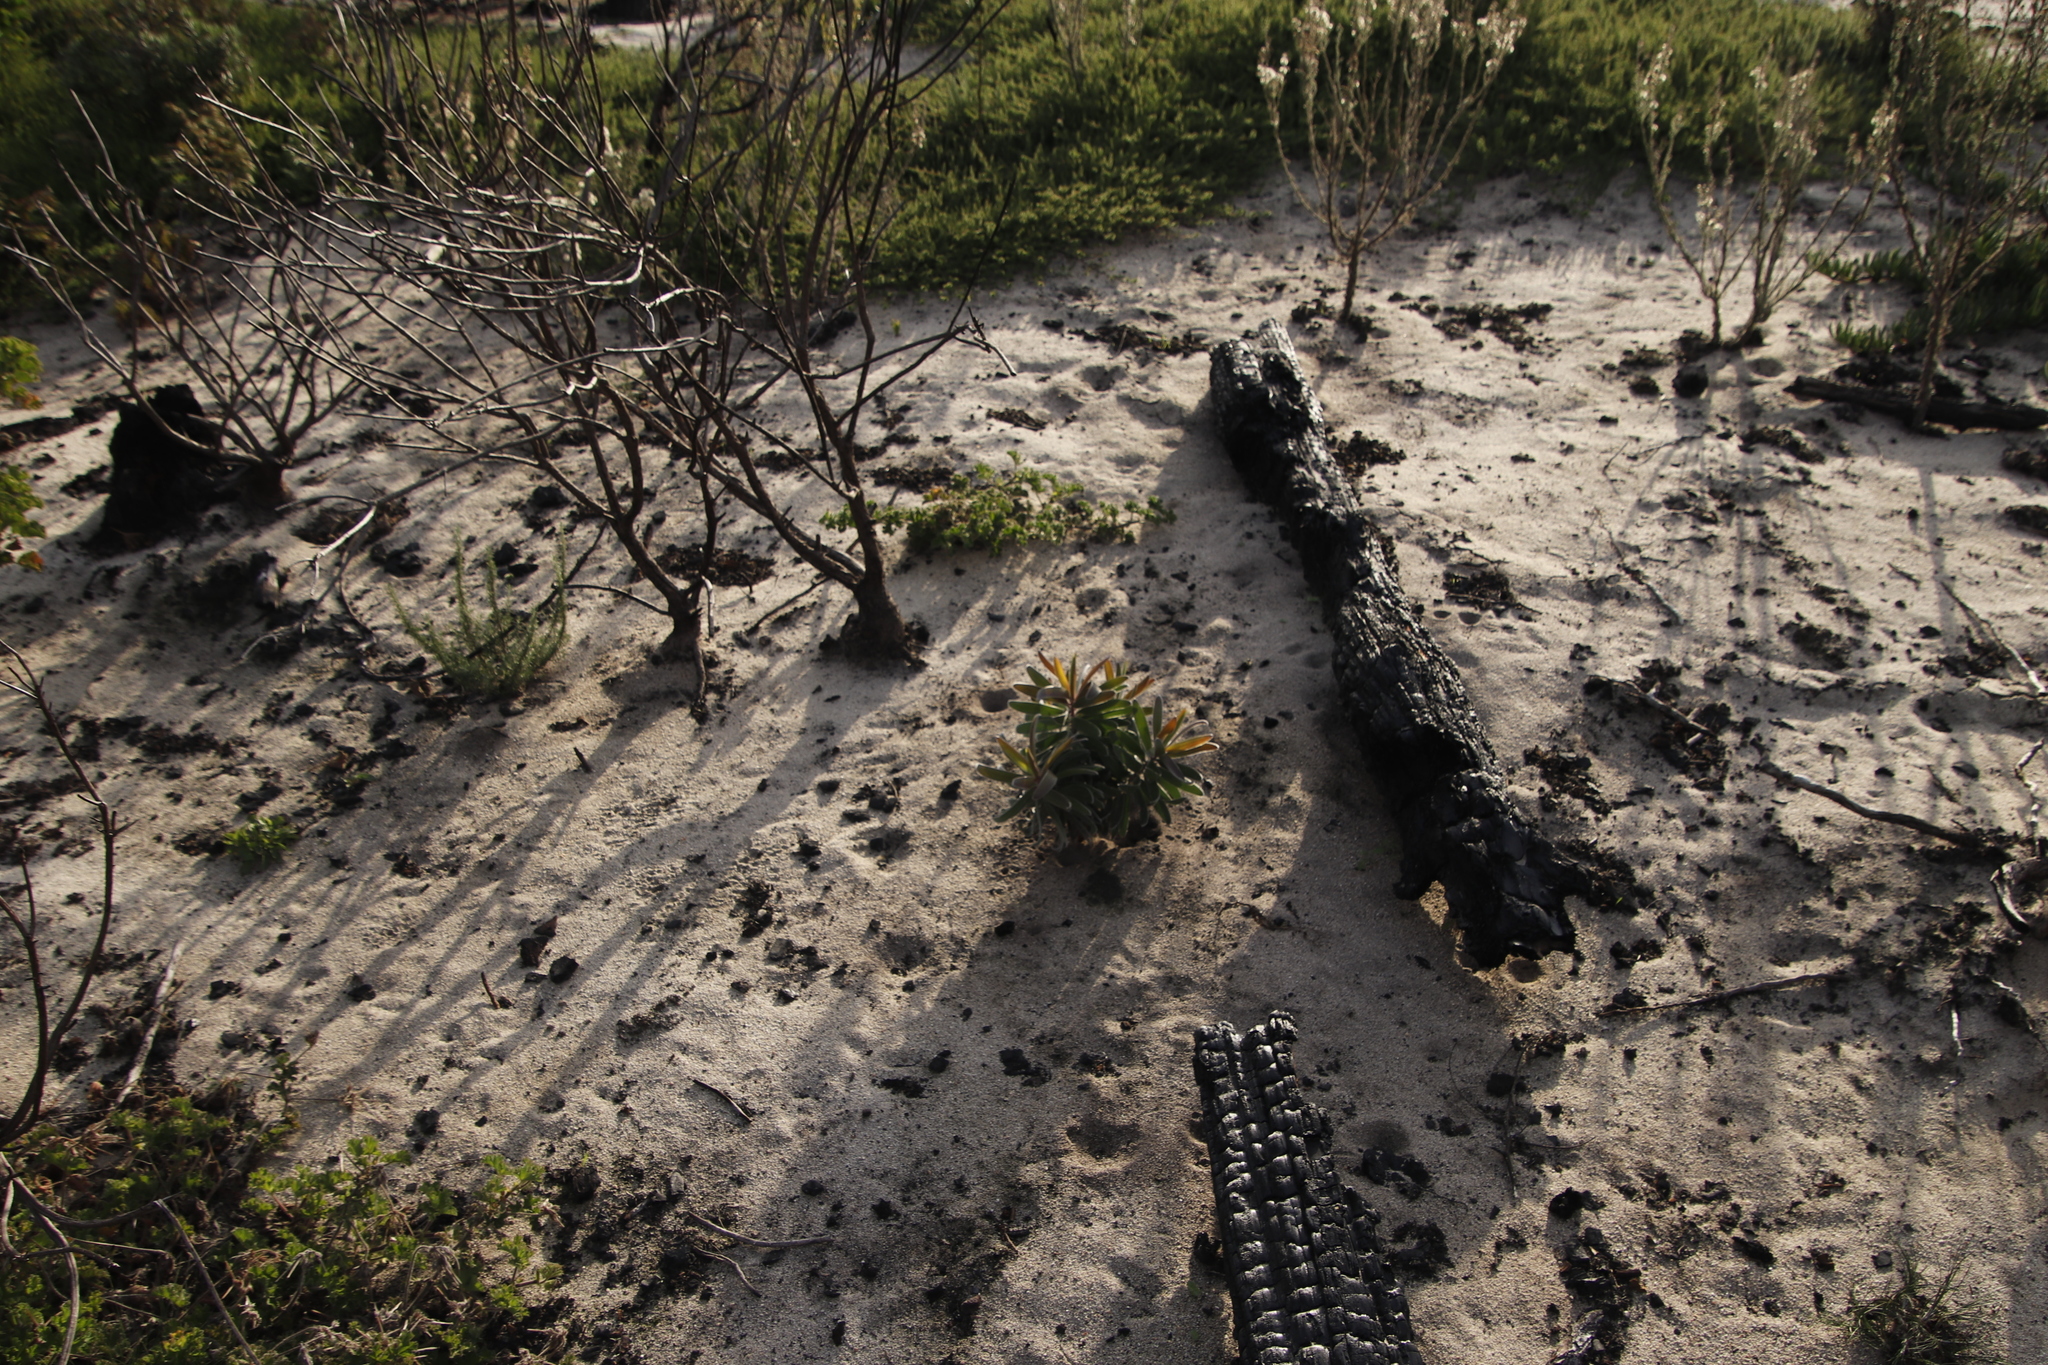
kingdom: Plantae
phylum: Tracheophyta
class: Magnoliopsida
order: Proteales
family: Proteaceae
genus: Leucadendron
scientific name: Leucadendron laureolum
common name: Golden sunshinebush
